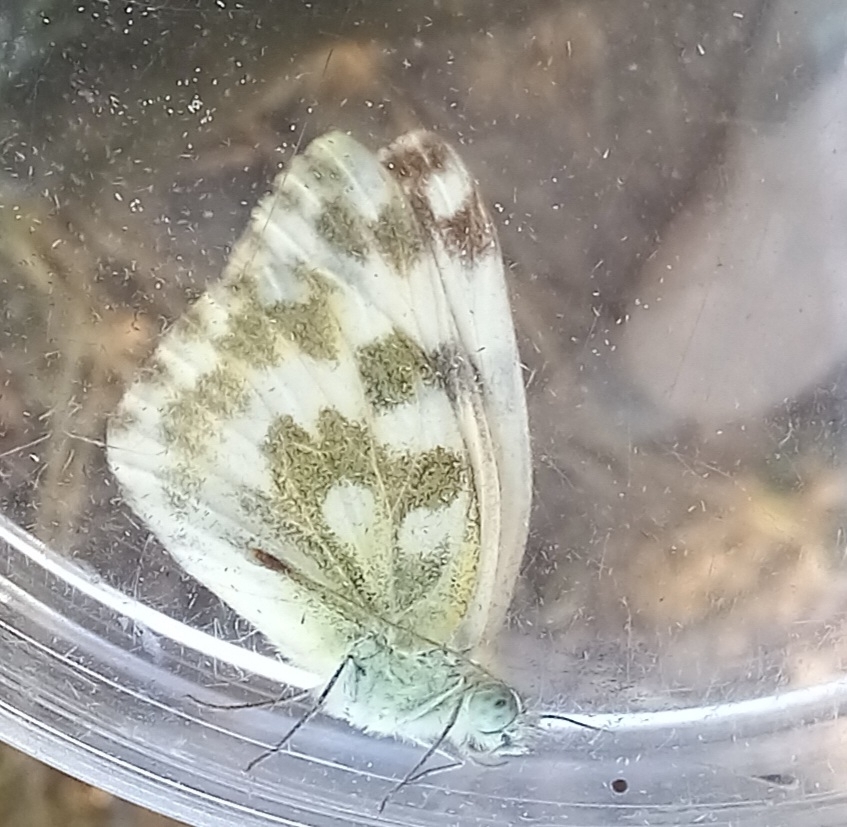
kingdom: Animalia
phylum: Arthropoda
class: Insecta
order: Lepidoptera
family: Pieridae
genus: Pontia
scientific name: Pontia daplidice
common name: Bath white
